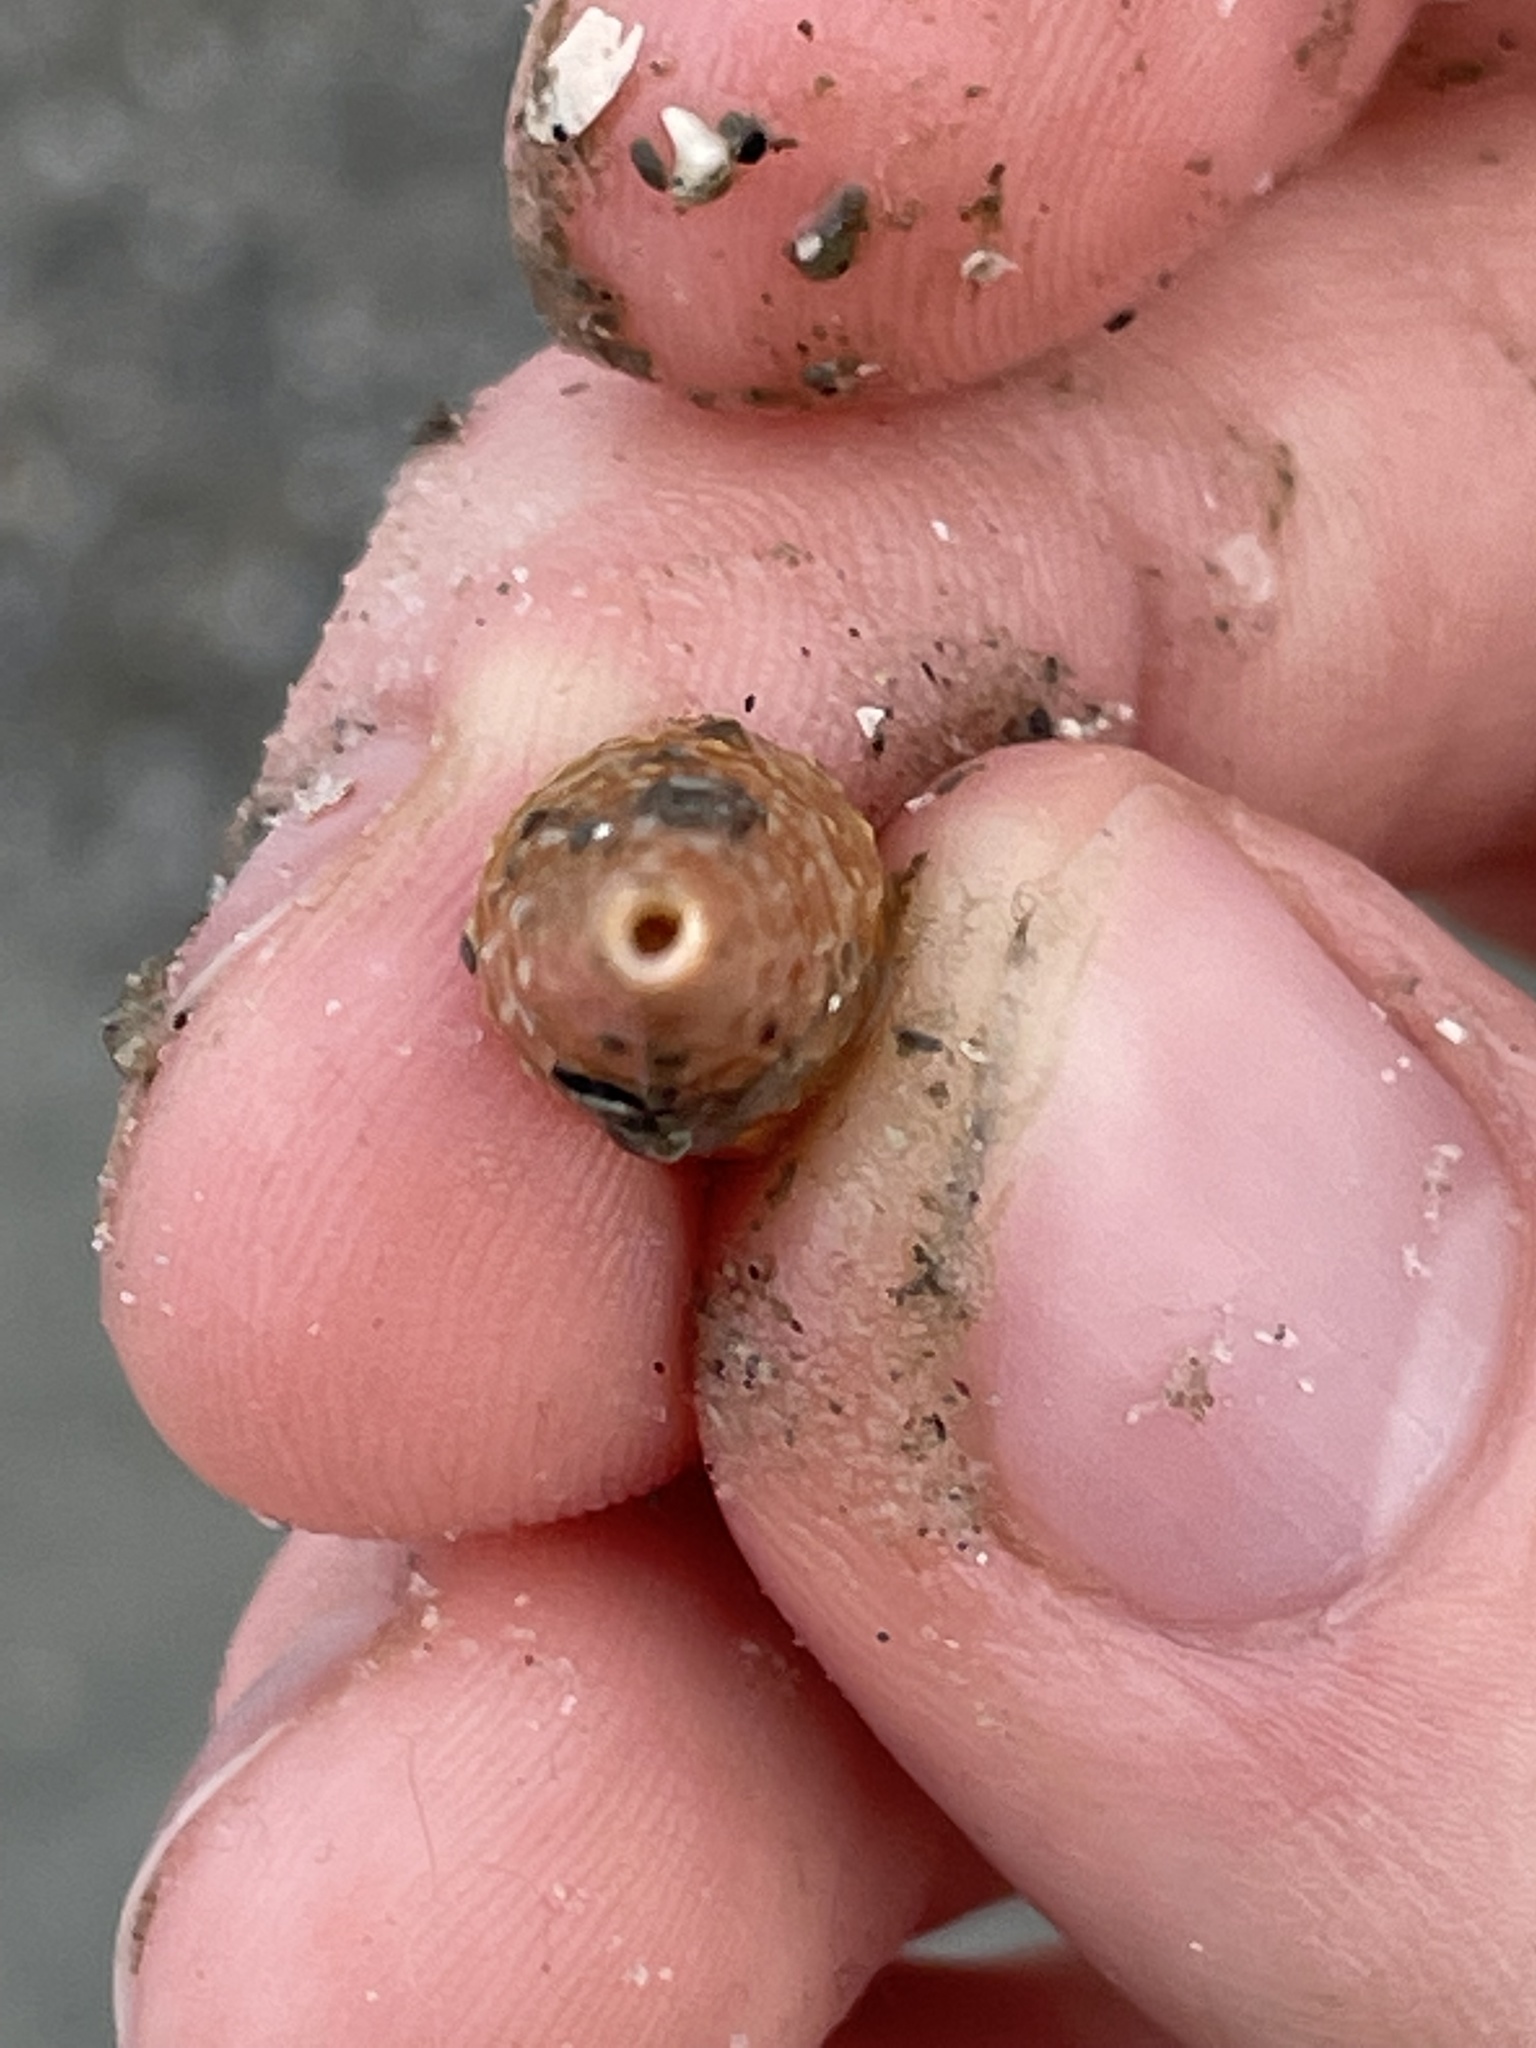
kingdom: Animalia
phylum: Mollusca
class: Gastropoda
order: Neogastropoda
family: Terebridae
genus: Neoterebra
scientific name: Neoterebra dislocata
